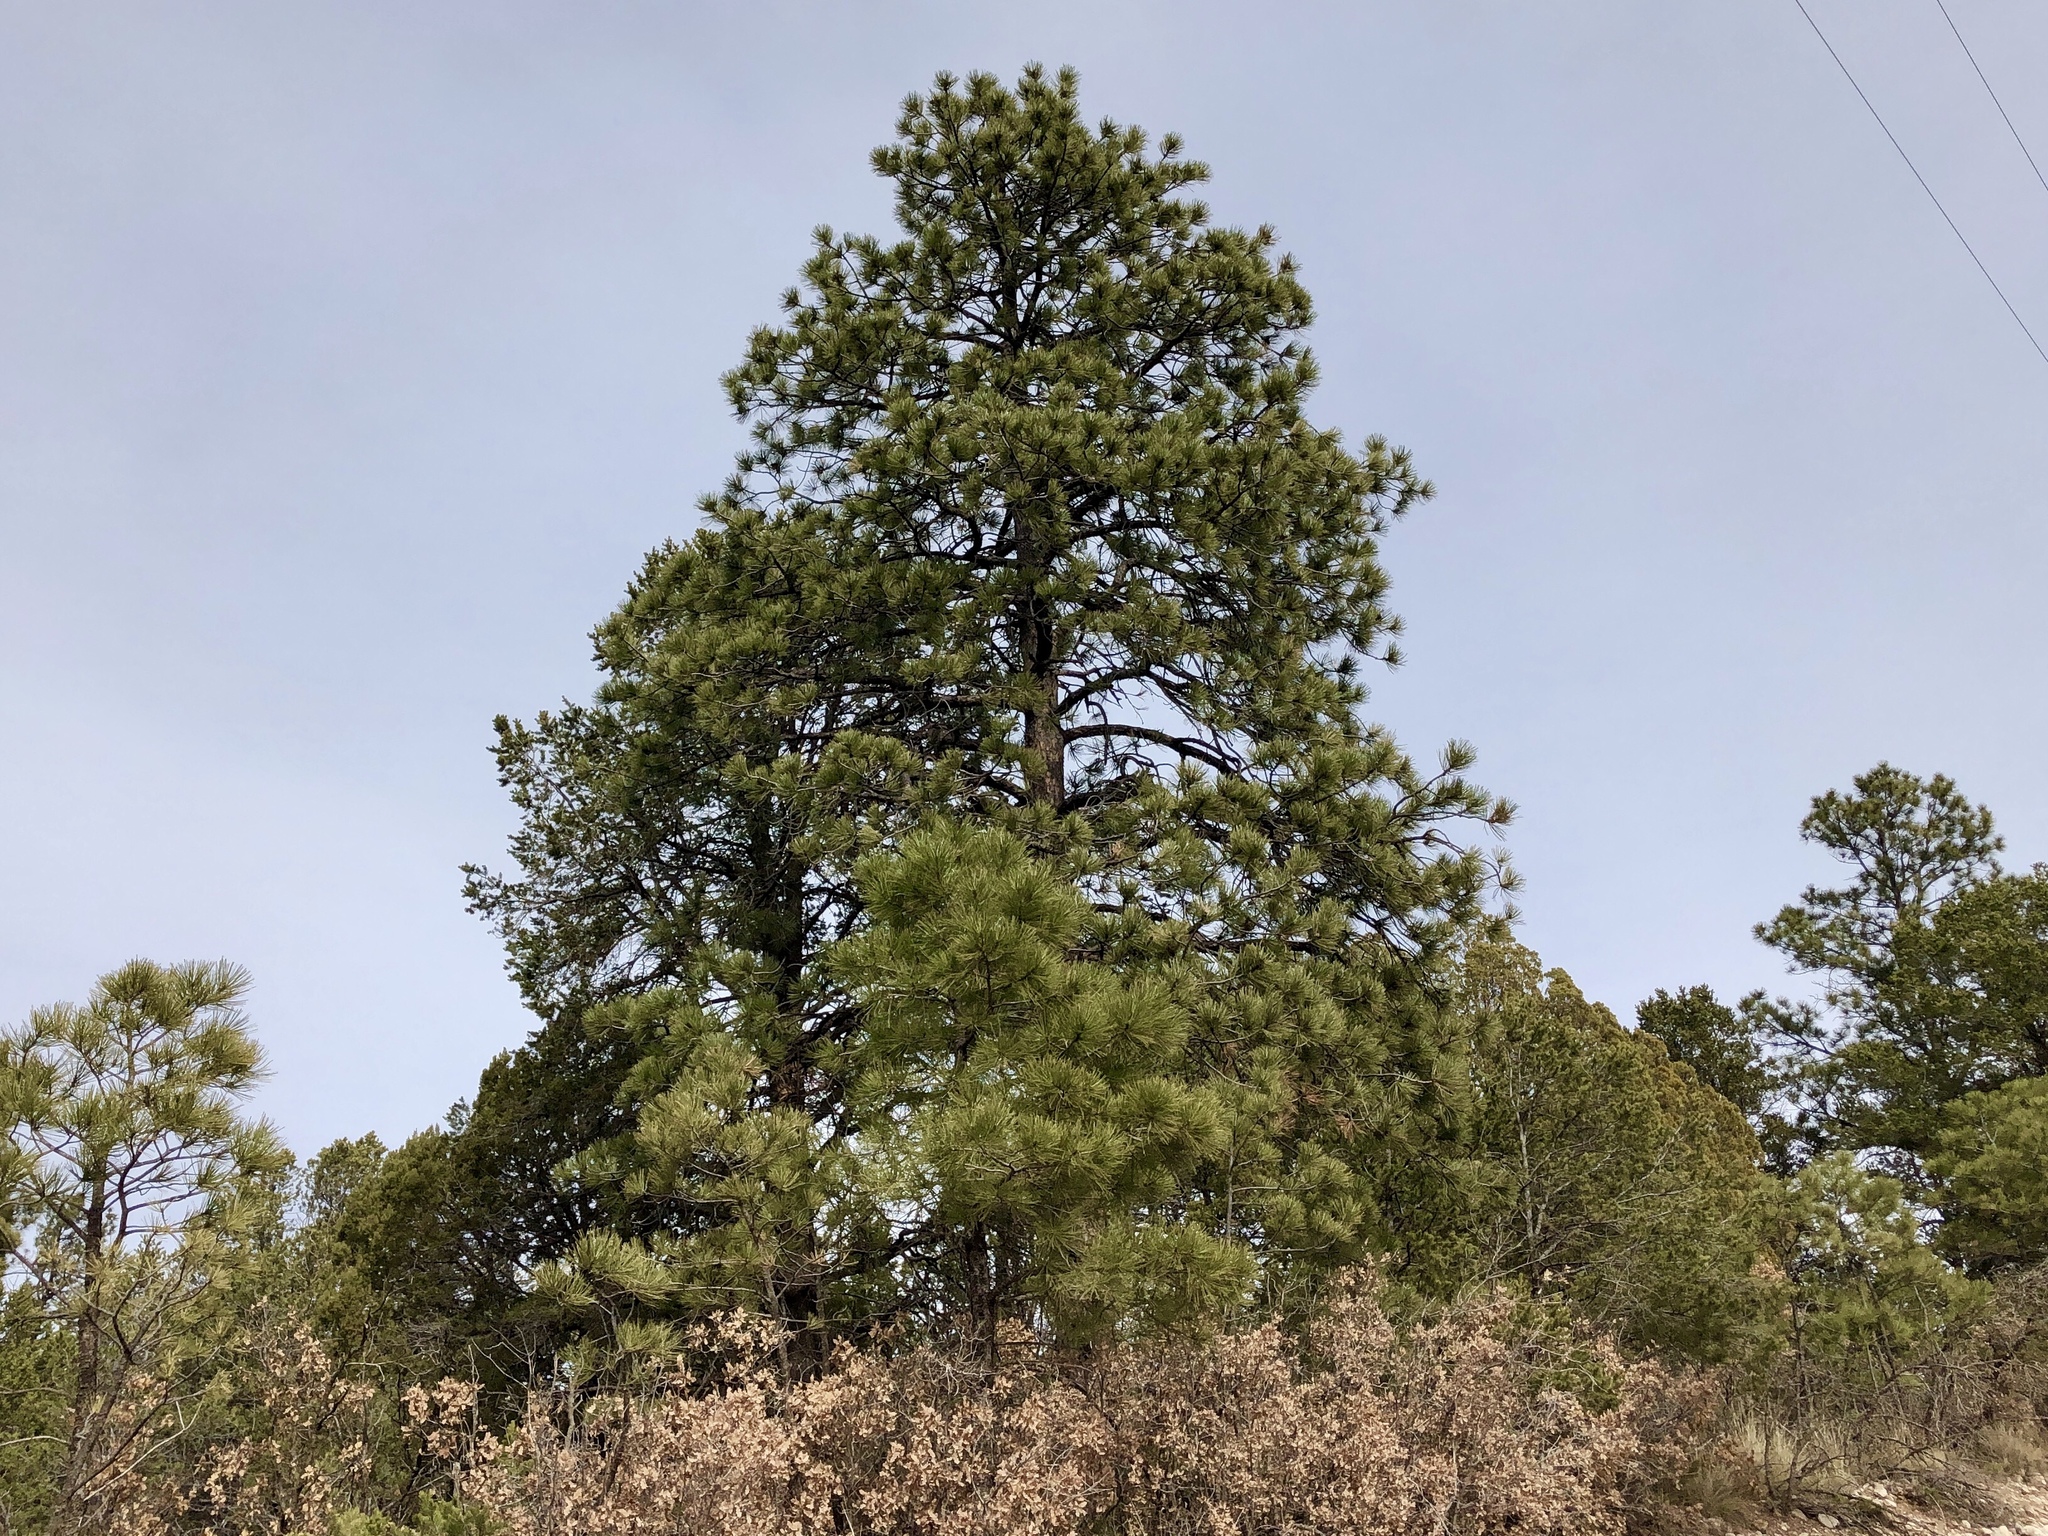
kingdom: Plantae
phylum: Tracheophyta
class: Pinopsida
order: Pinales
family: Pinaceae
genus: Pinus
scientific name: Pinus ponderosa
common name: Western yellow-pine
